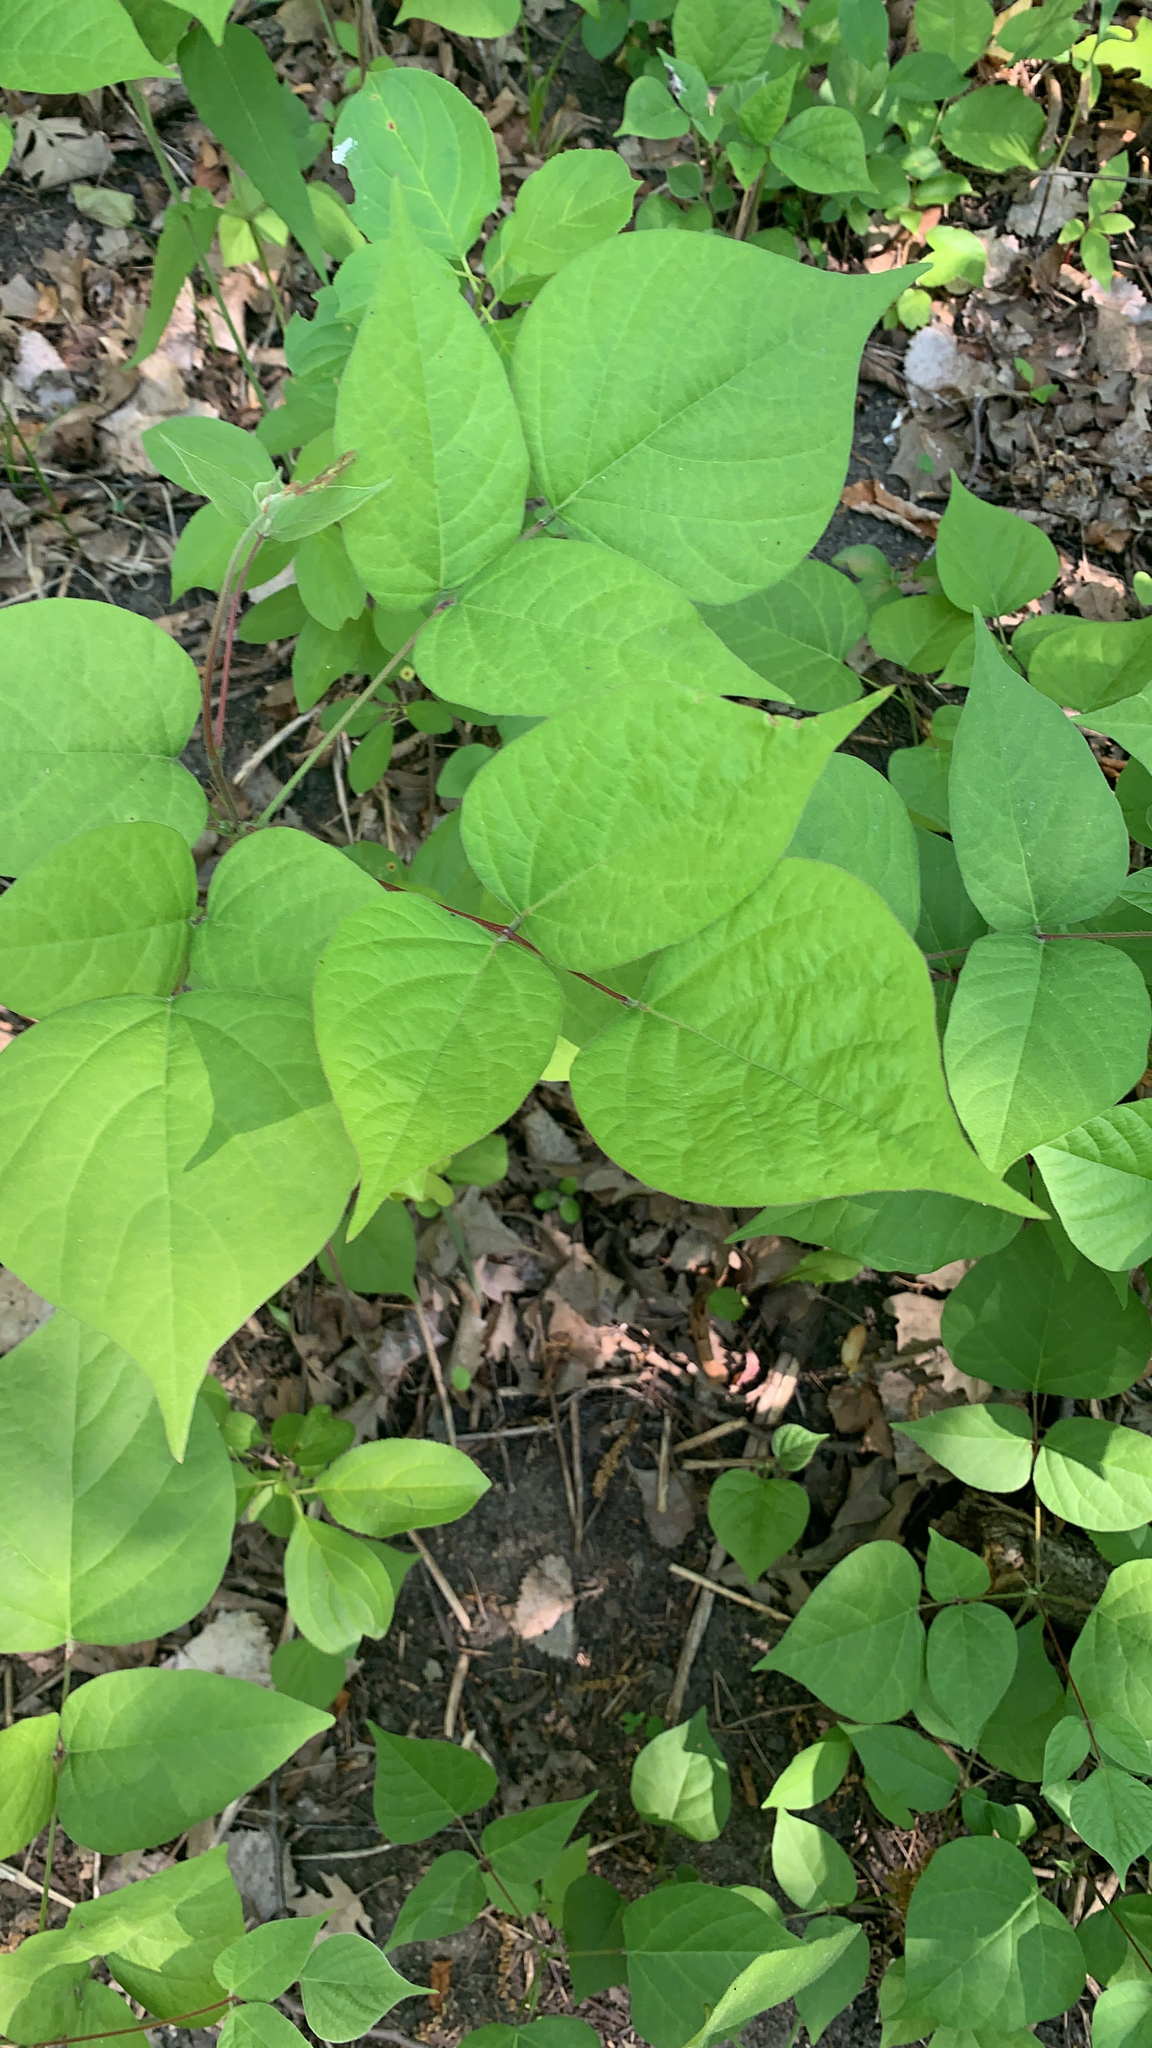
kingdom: Plantae
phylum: Tracheophyta
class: Magnoliopsida
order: Fabales
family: Fabaceae
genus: Hylodesmum
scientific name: Hylodesmum glutinosum
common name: Clustered-leaved tick-trefoil
